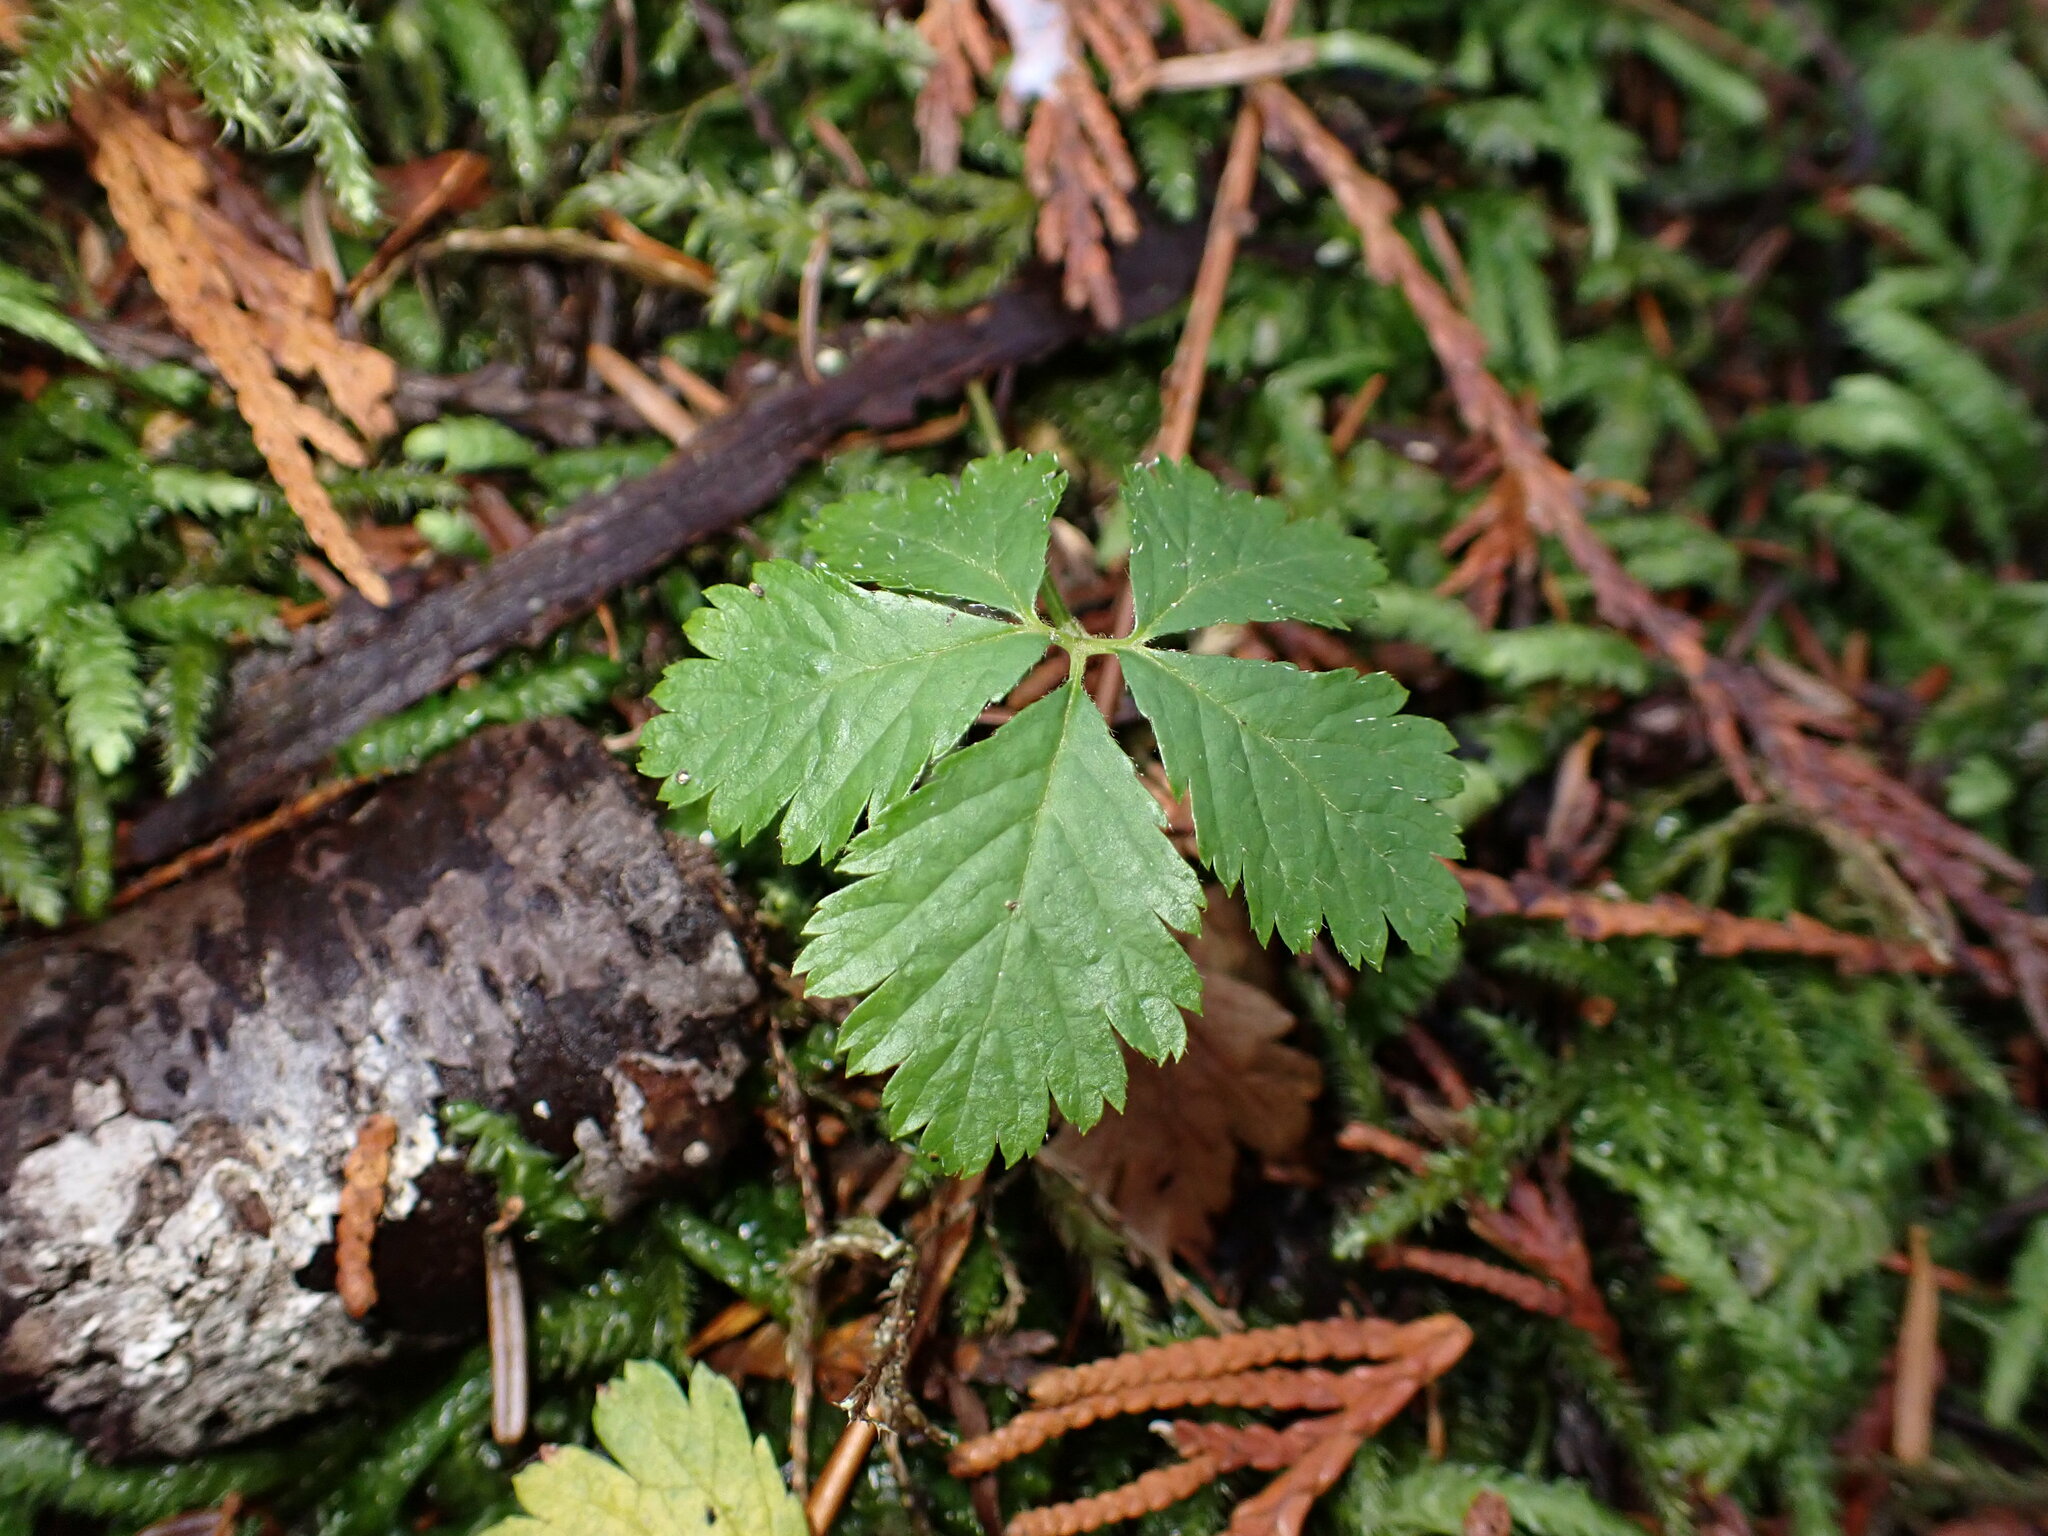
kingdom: Plantae
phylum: Tracheophyta
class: Magnoliopsida
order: Rosales
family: Rosaceae
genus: Rubus
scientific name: Rubus pedatus
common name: Creeping raspberry
